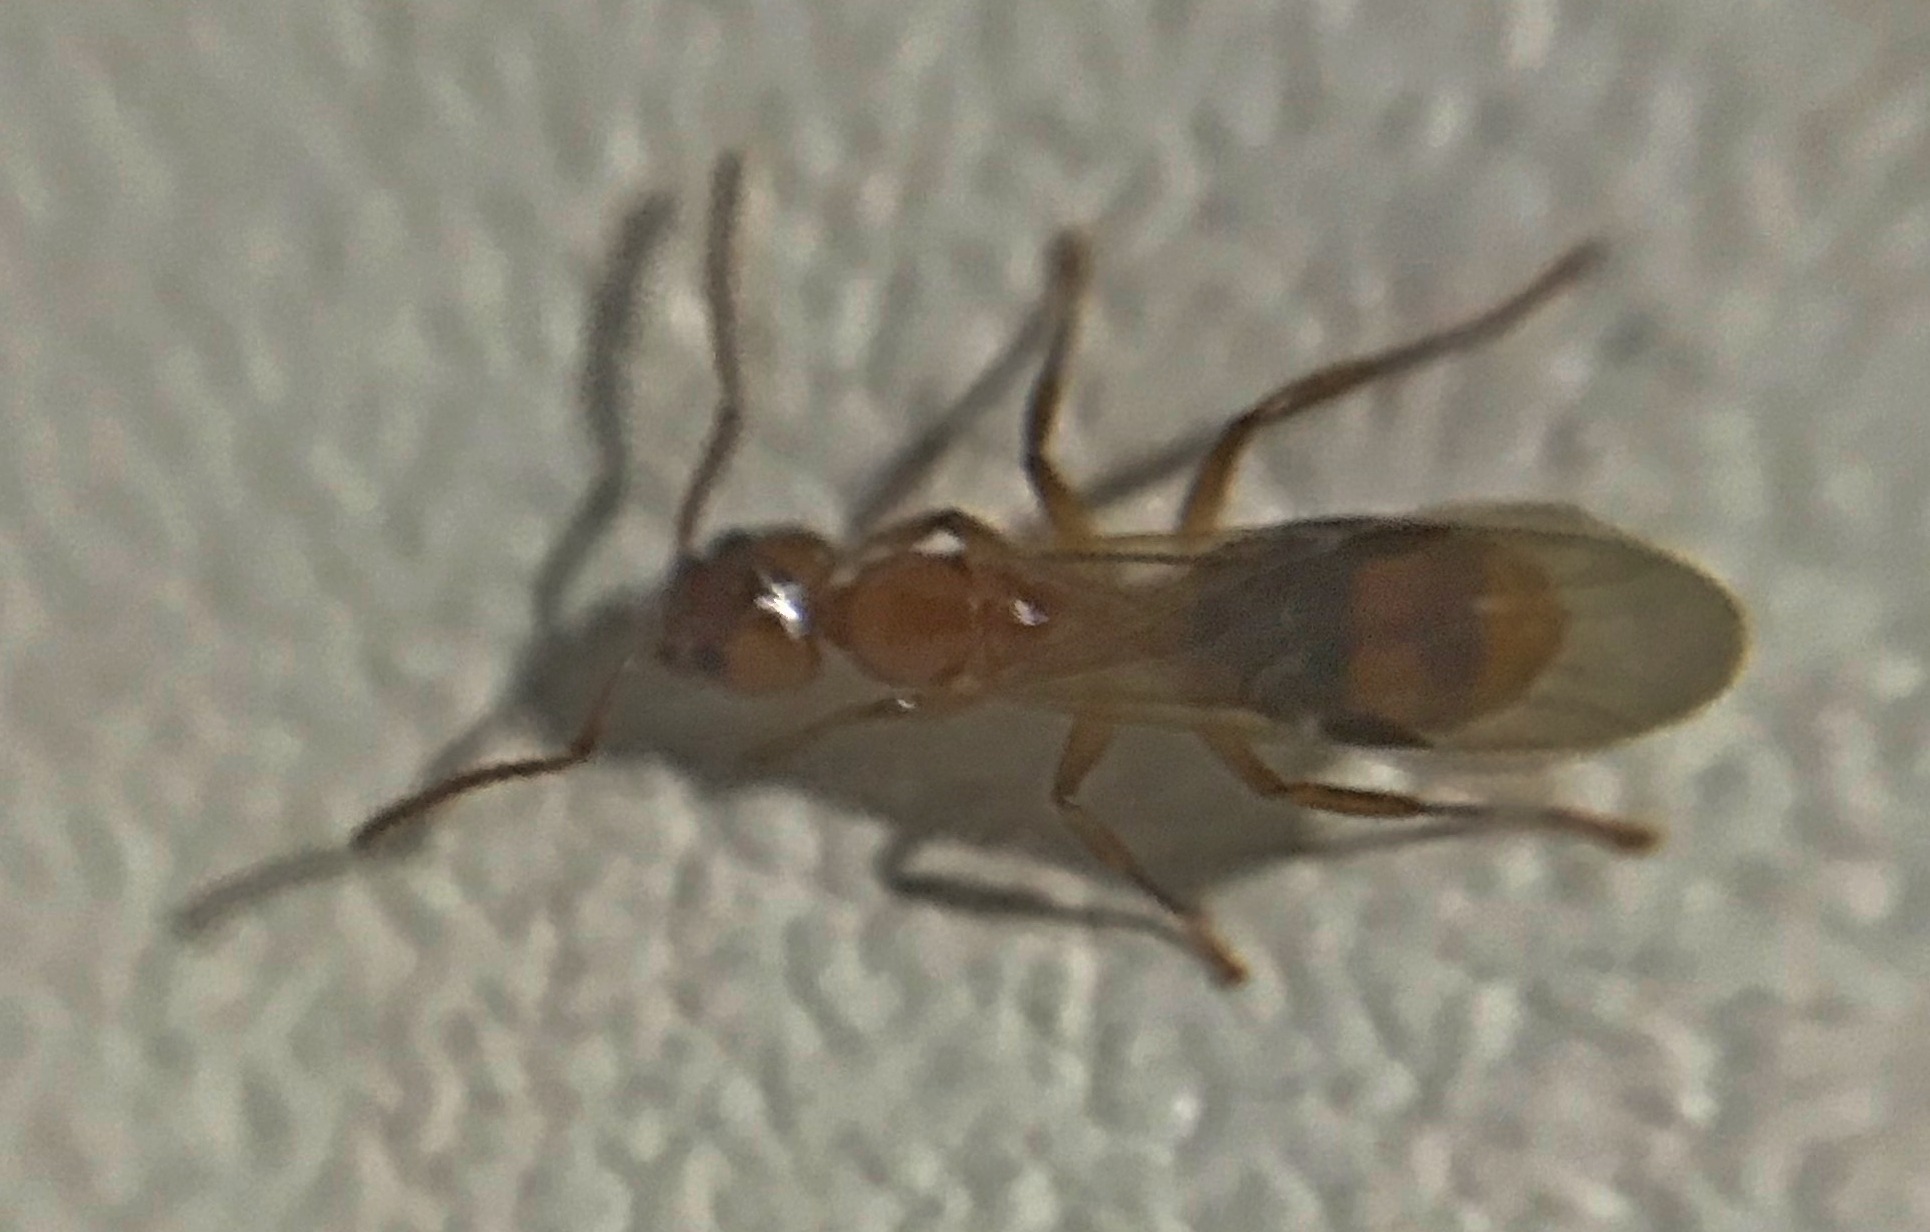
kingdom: Animalia
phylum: Arthropoda
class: Insecta
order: Hymenoptera
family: Formicidae
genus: Dolichoderus
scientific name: Dolichoderus lutosus
